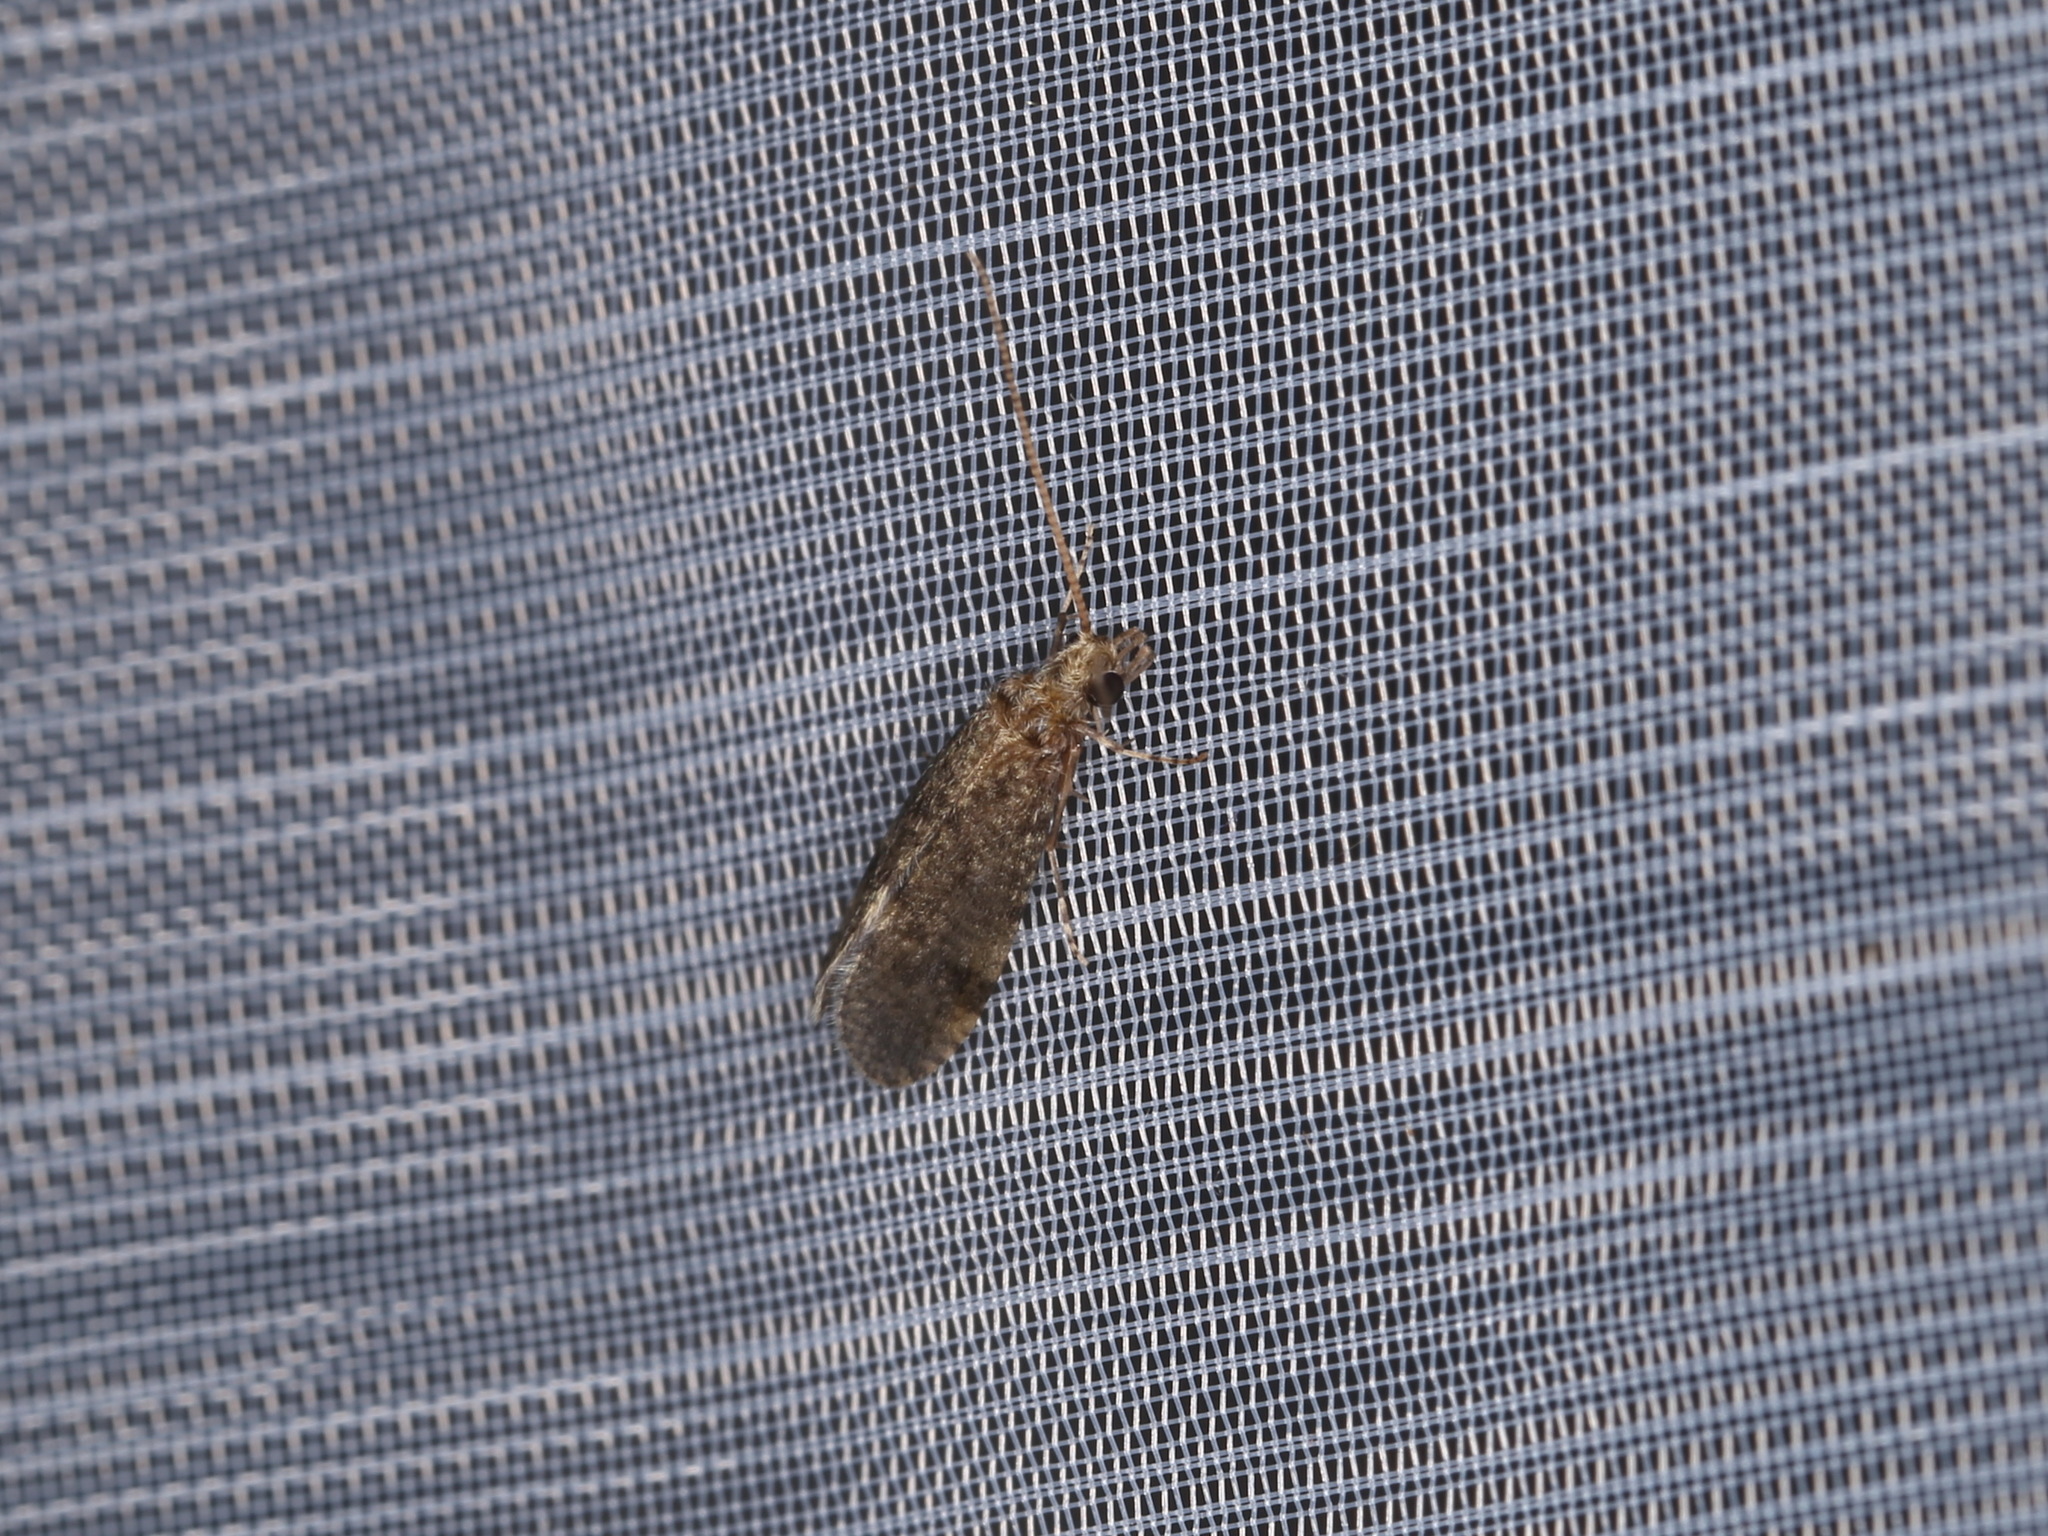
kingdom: Animalia
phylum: Arthropoda
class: Insecta
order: Trichoptera
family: Ecnomidae
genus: Ecnomus
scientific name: Ecnomus tenellus
